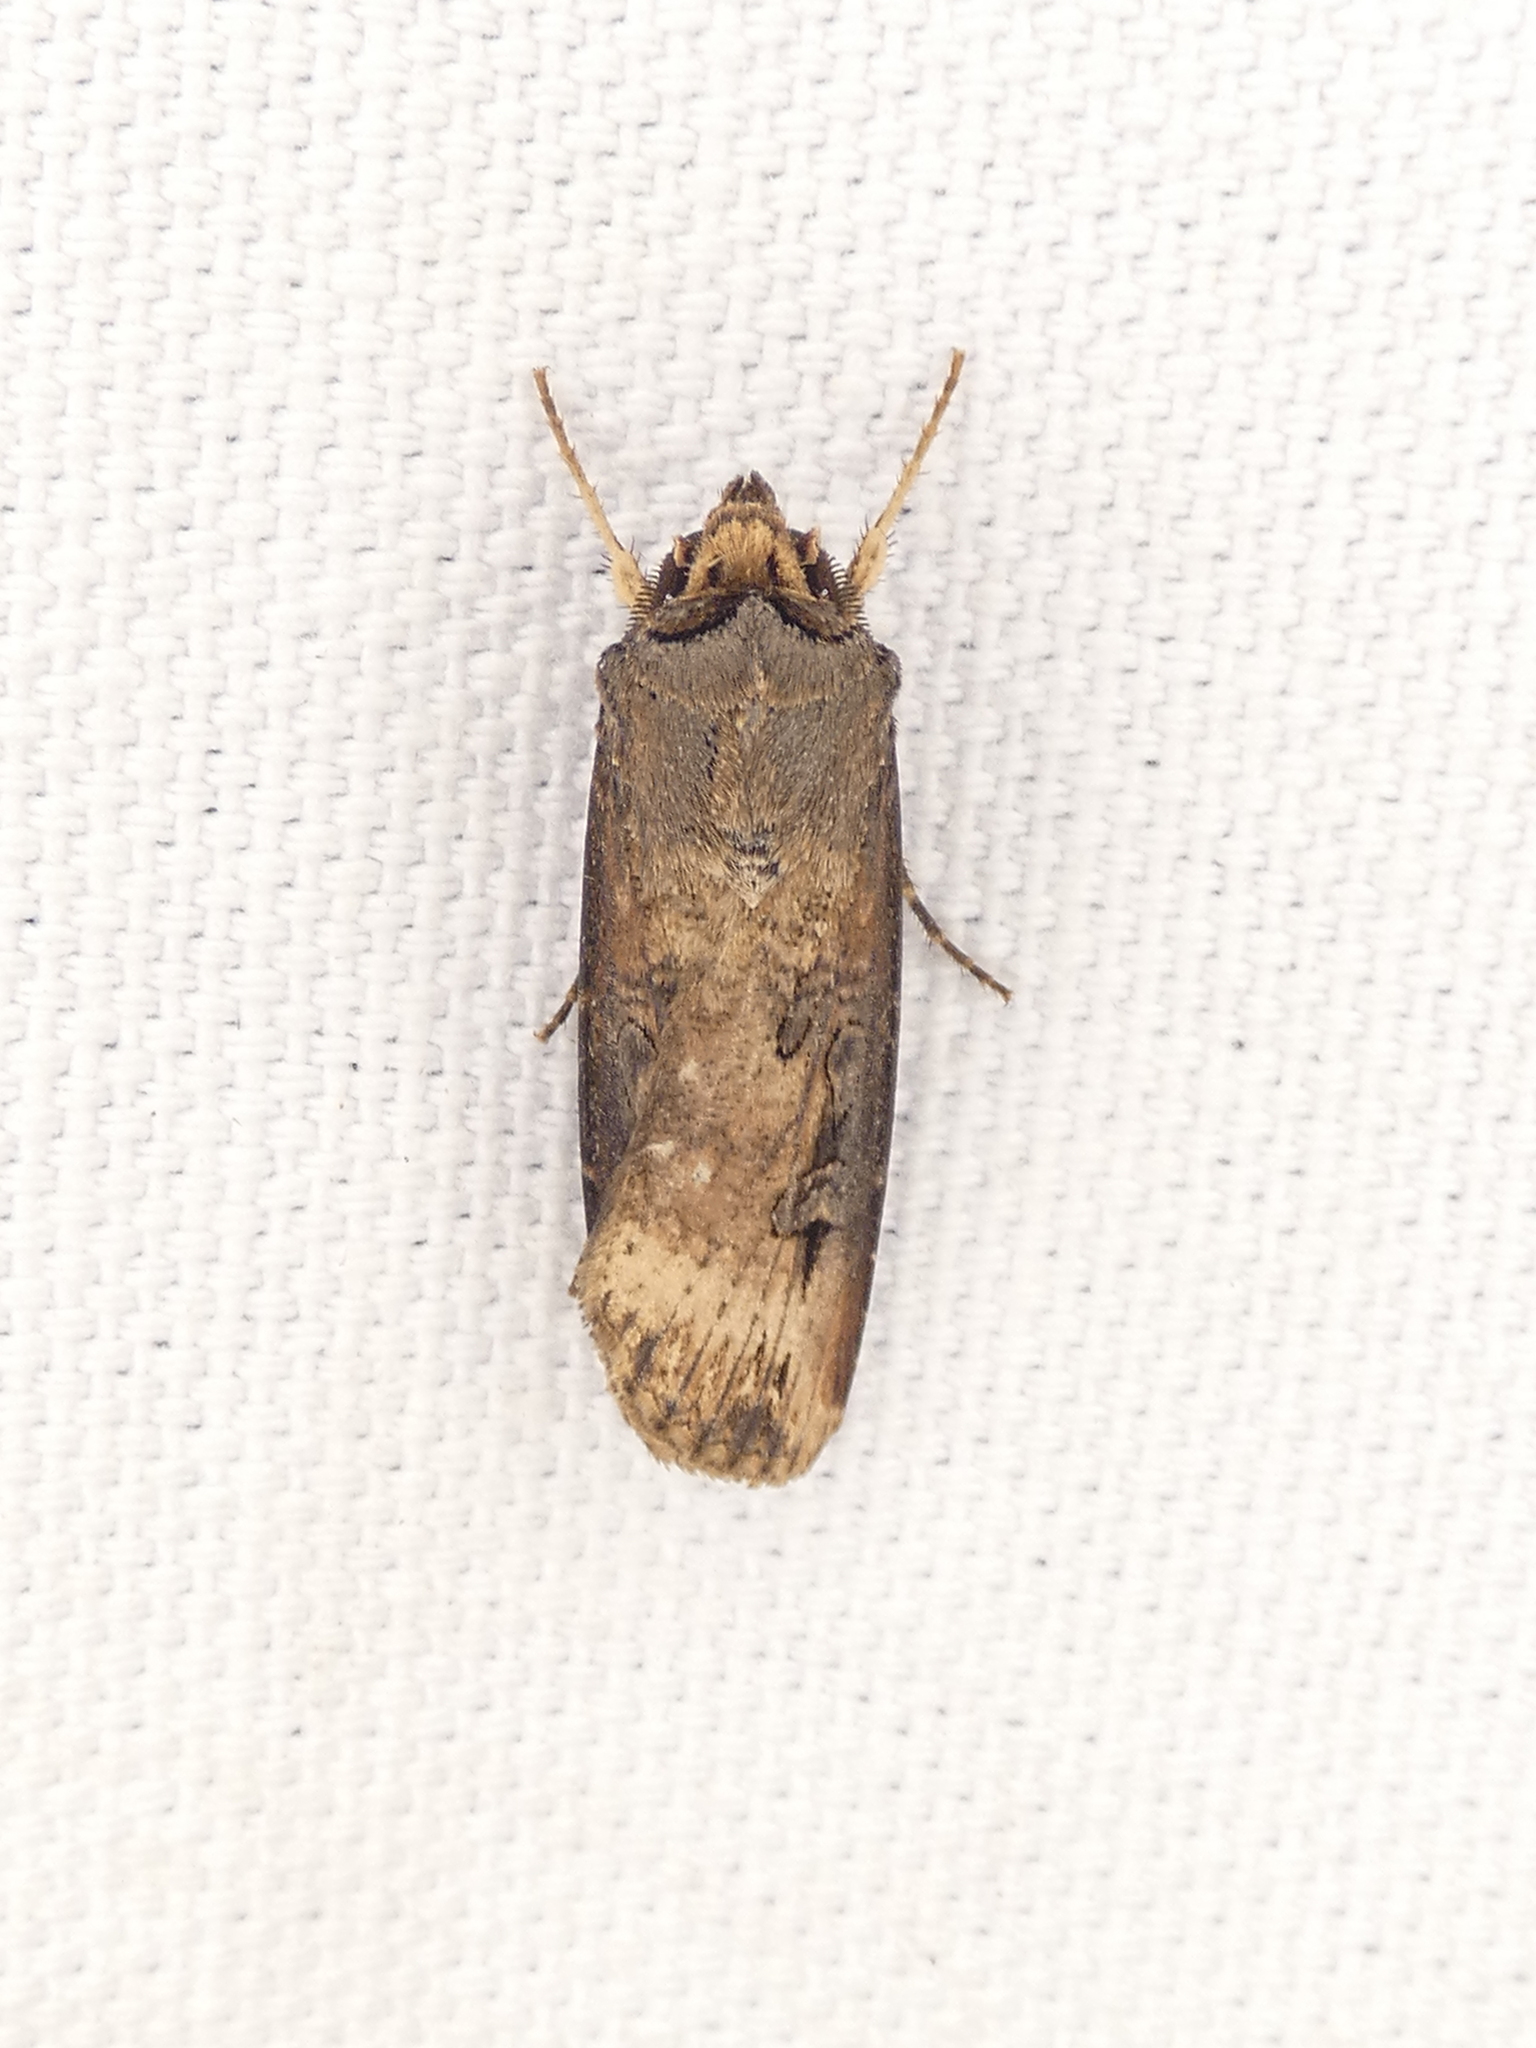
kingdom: Animalia
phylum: Arthropoda
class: Insecta
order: Lepidoptera
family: Noctuidae
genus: Agrotis
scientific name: Agrotis ipsilon
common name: Dark sword-grass
